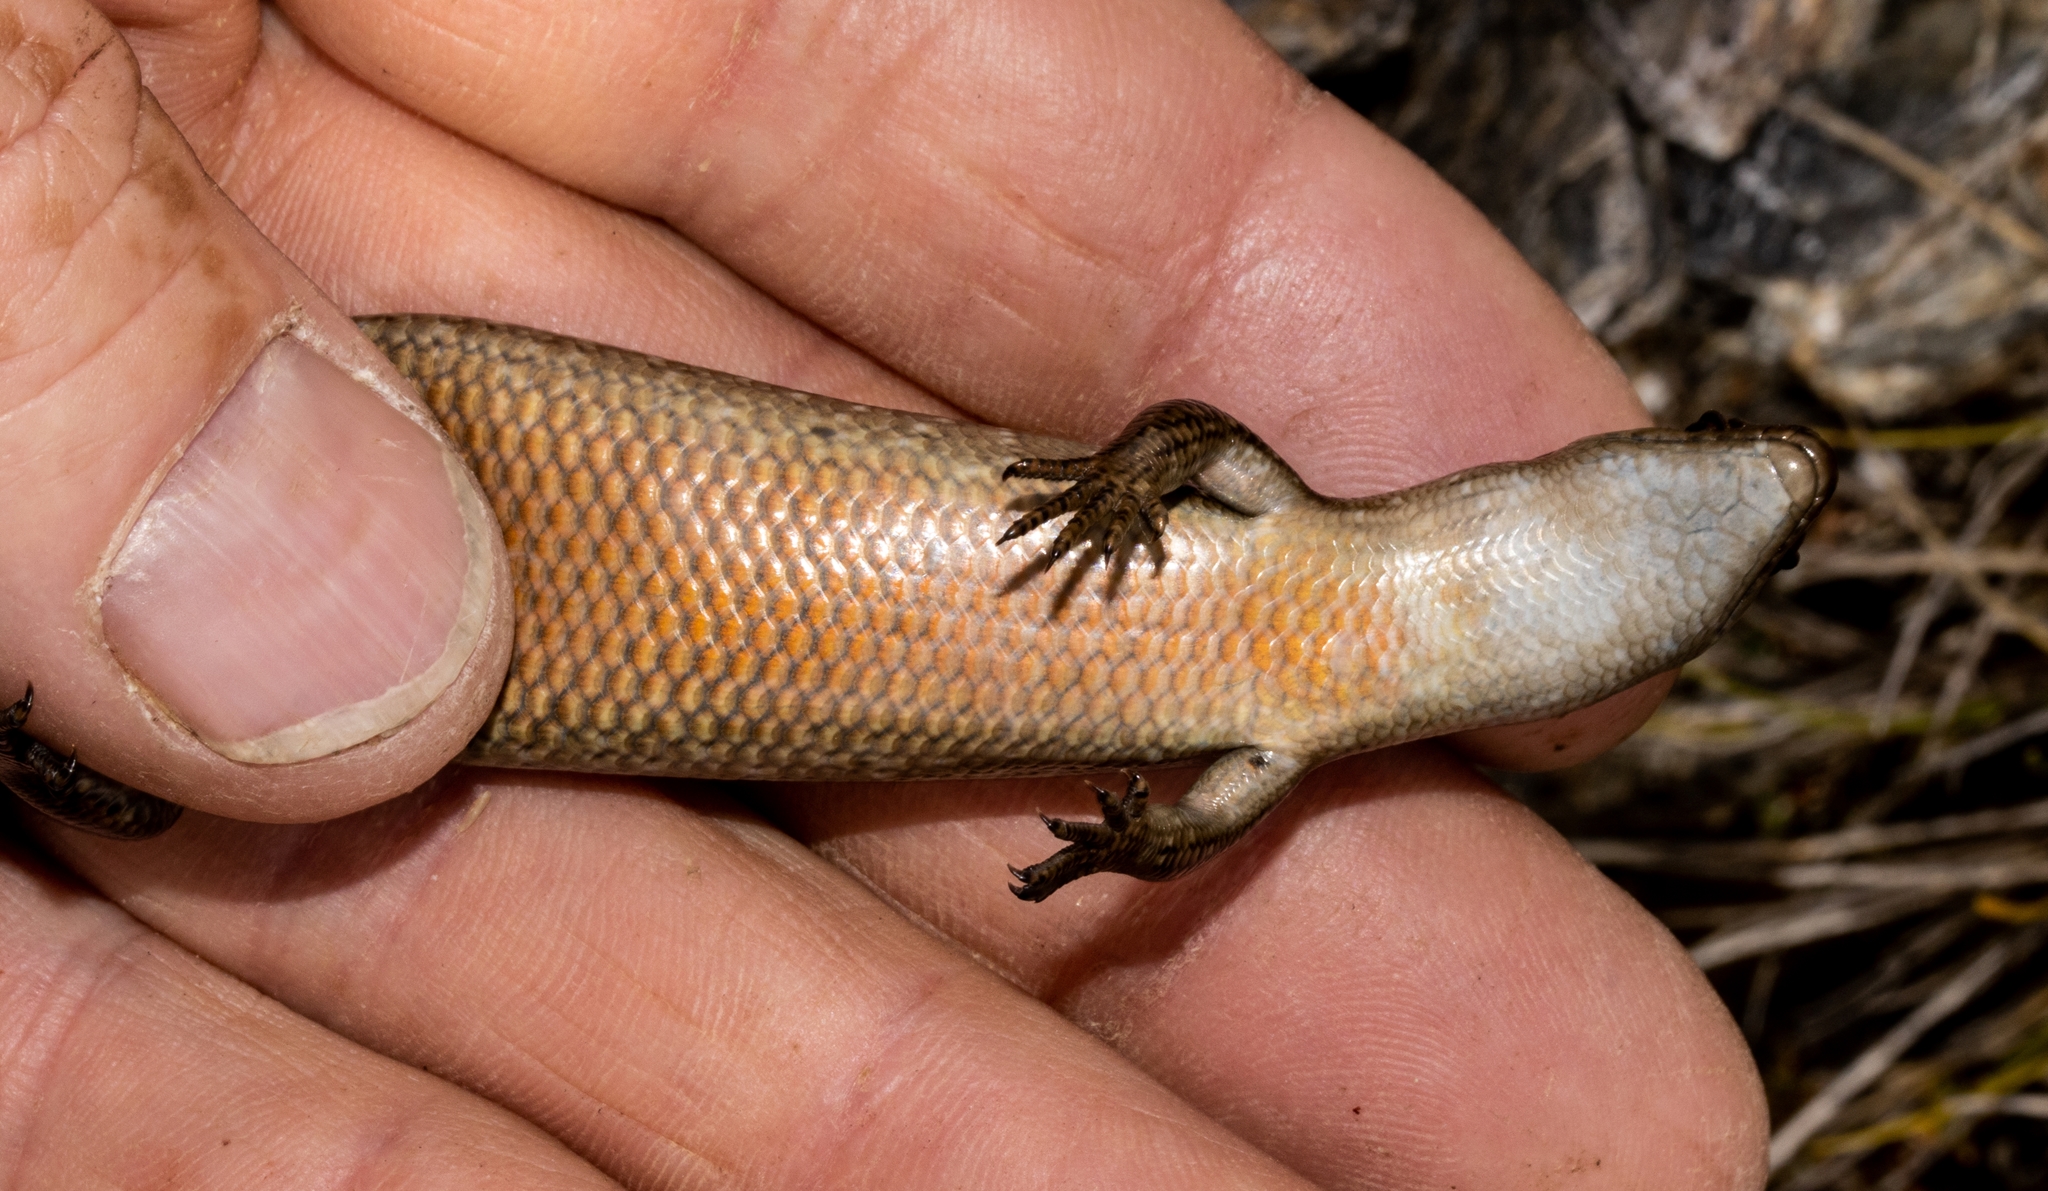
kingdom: Animalia
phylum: Chordata
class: Squamata
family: Scincidae
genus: Oligosoma
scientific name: Oligosoma newmani
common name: Newman’s speckled skink
